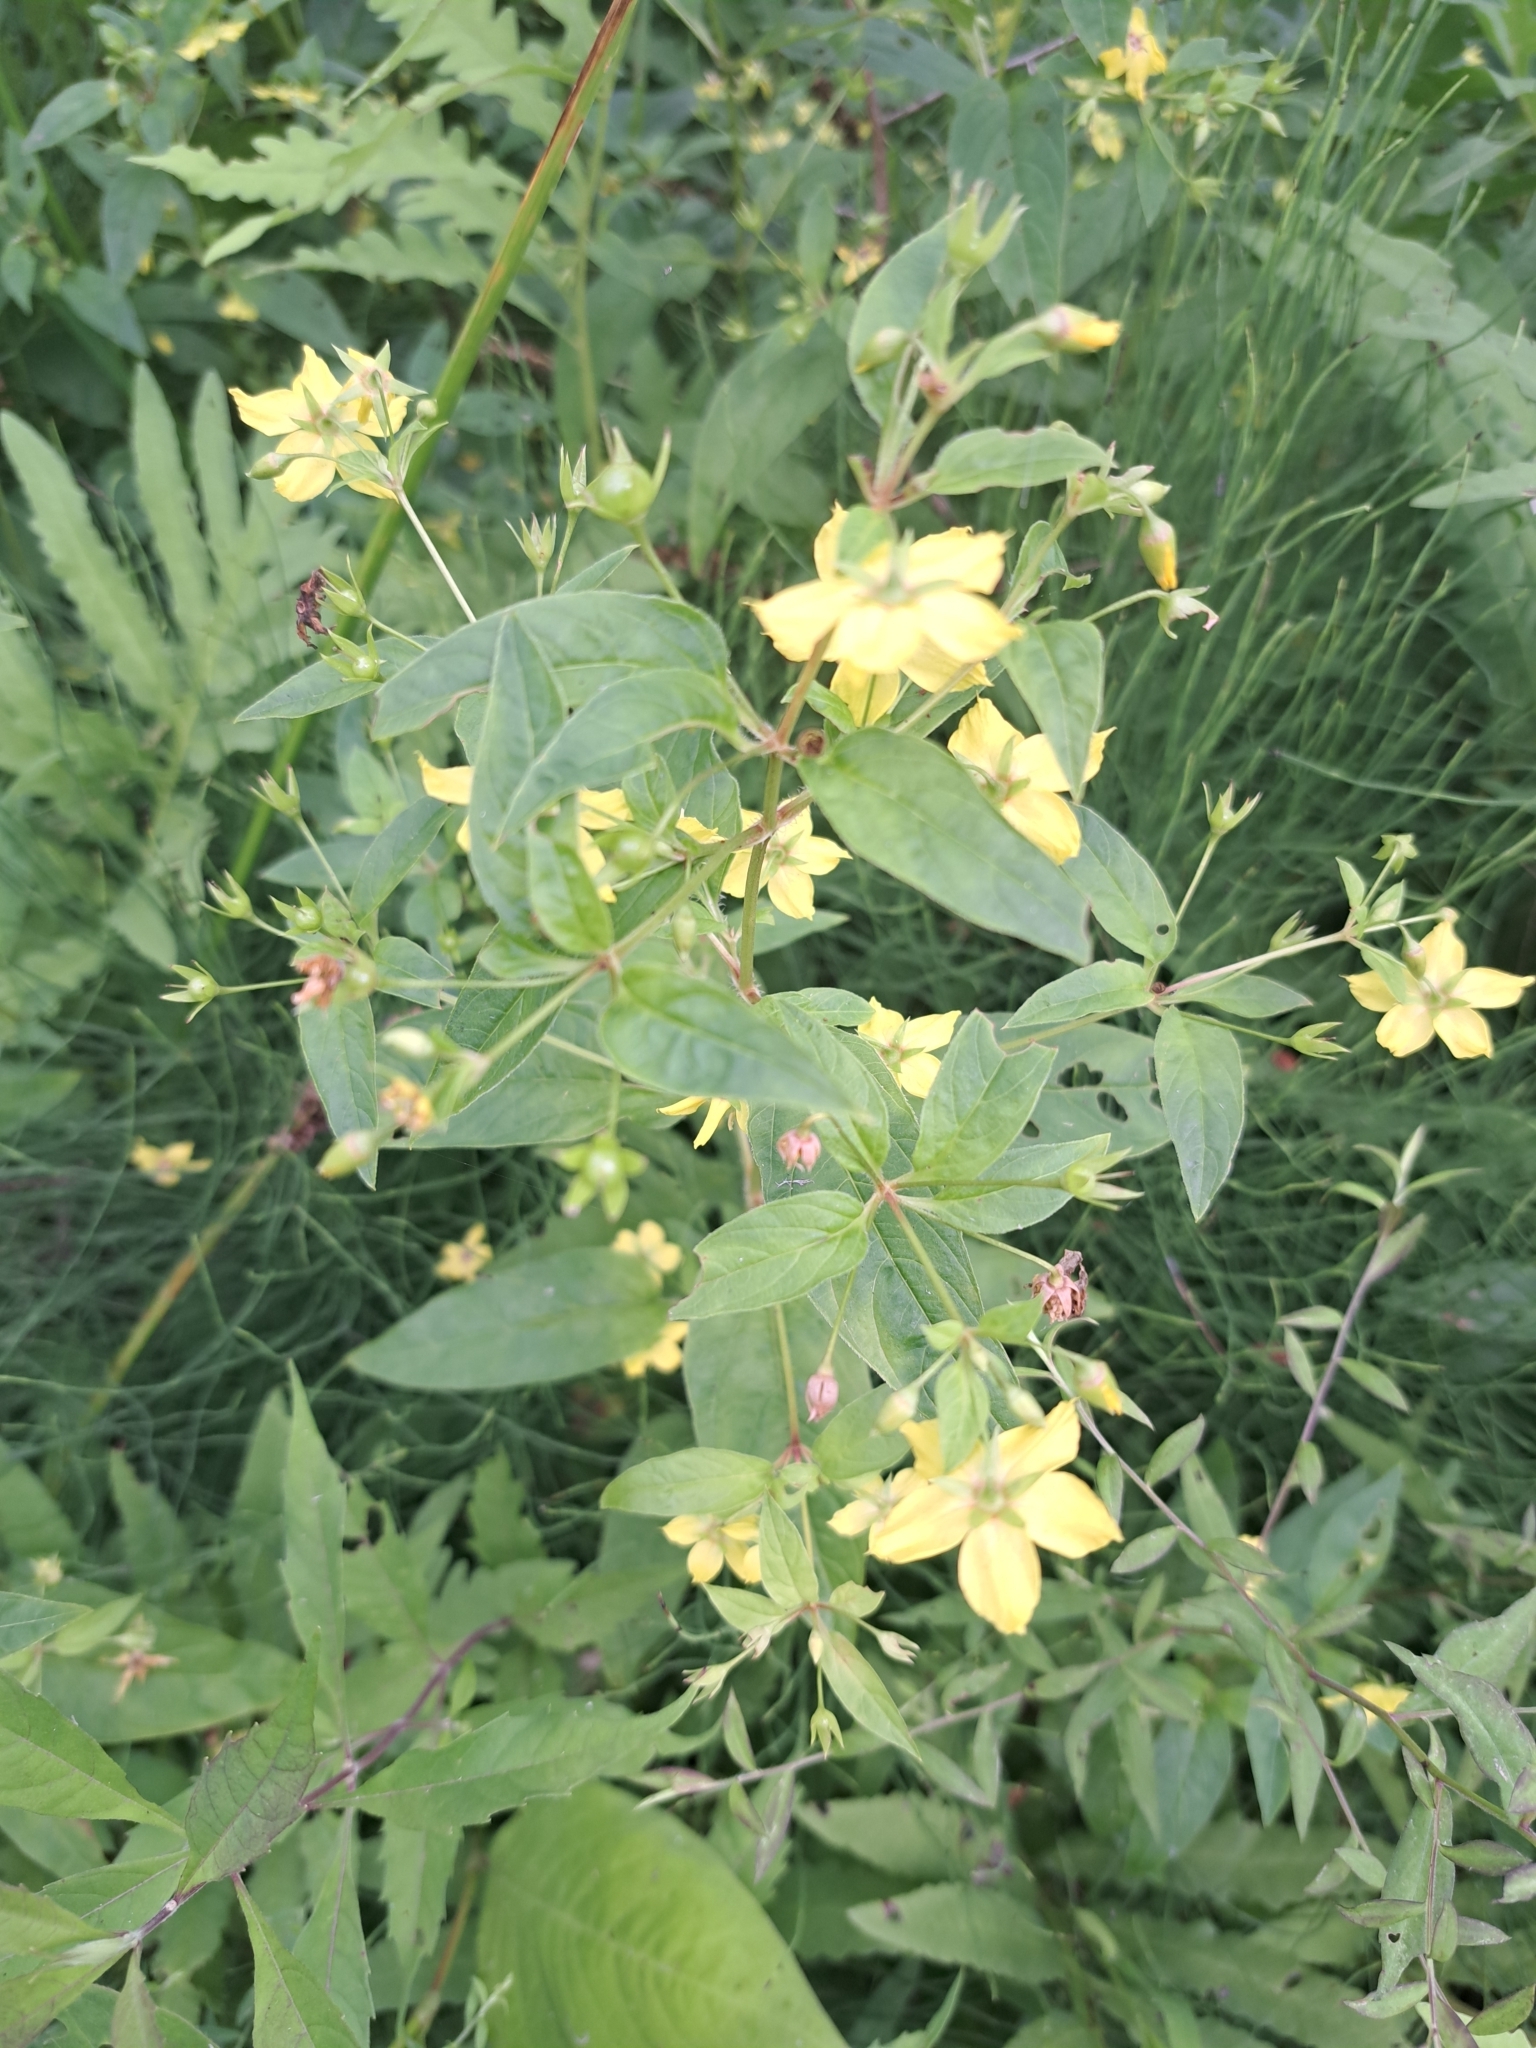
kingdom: Plantae
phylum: Tracheophyta
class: Magnoliopsida
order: Ericales
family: Primulaceae
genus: Lysimachia
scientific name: Lysimachia ciliata
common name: Fringed loosestrife
